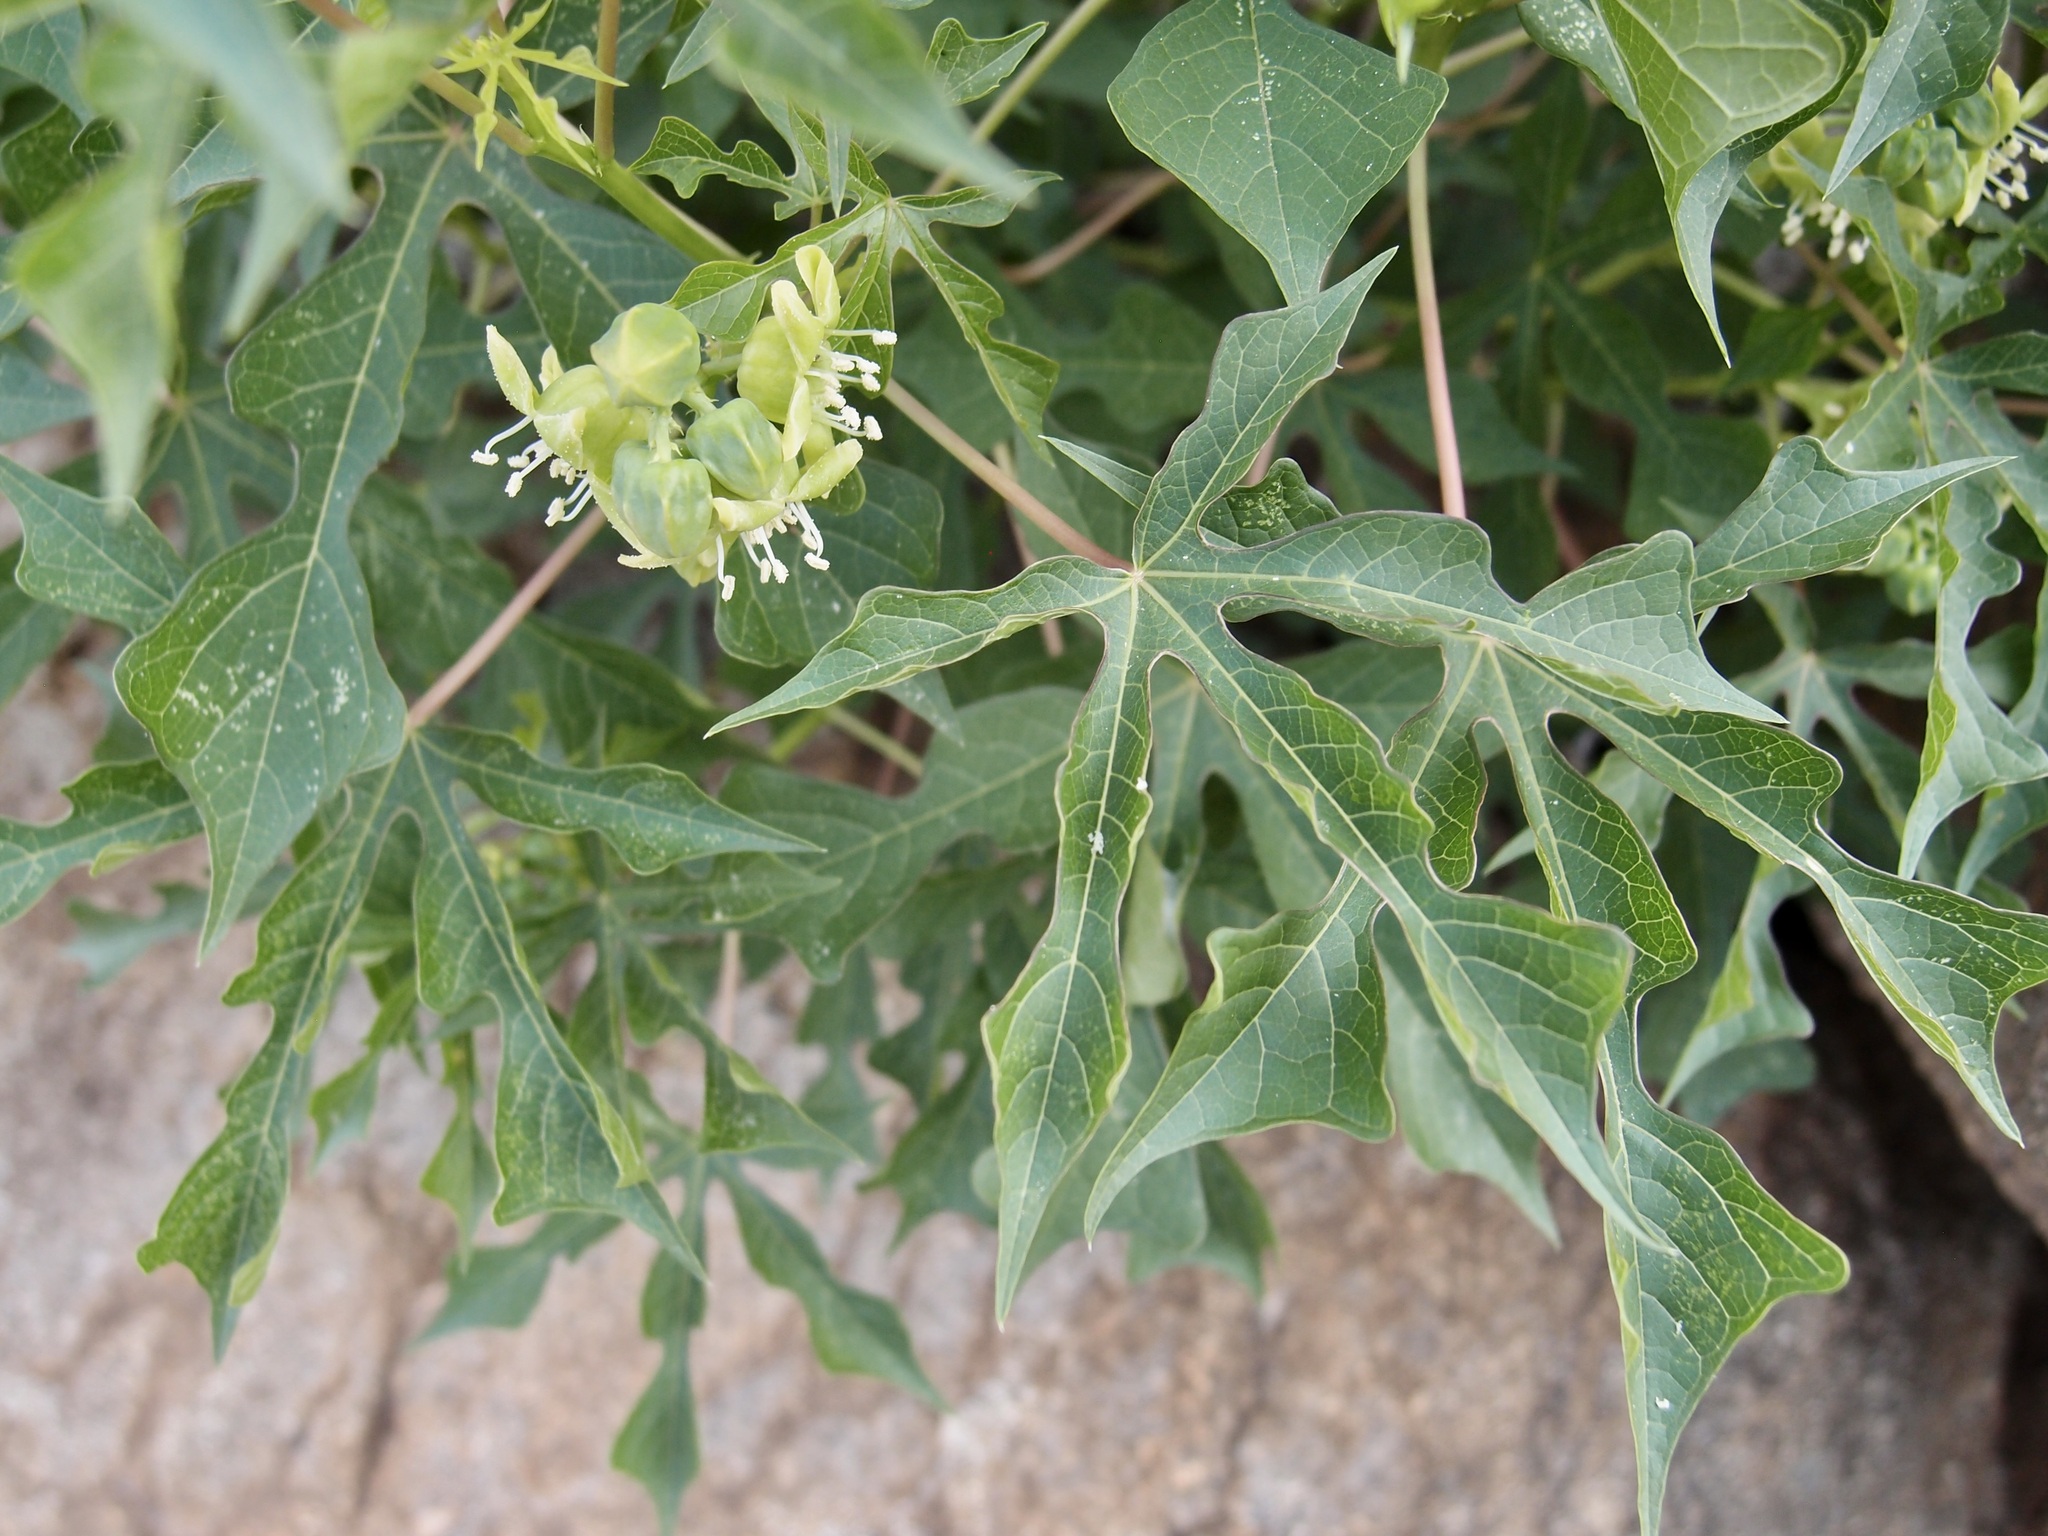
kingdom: Plantae
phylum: Tracheophyta
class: Magnoliopsida
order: Malpighiales
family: Euphorbiaceae
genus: Manihot
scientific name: Manihot davisiae
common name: Arizona cassava
